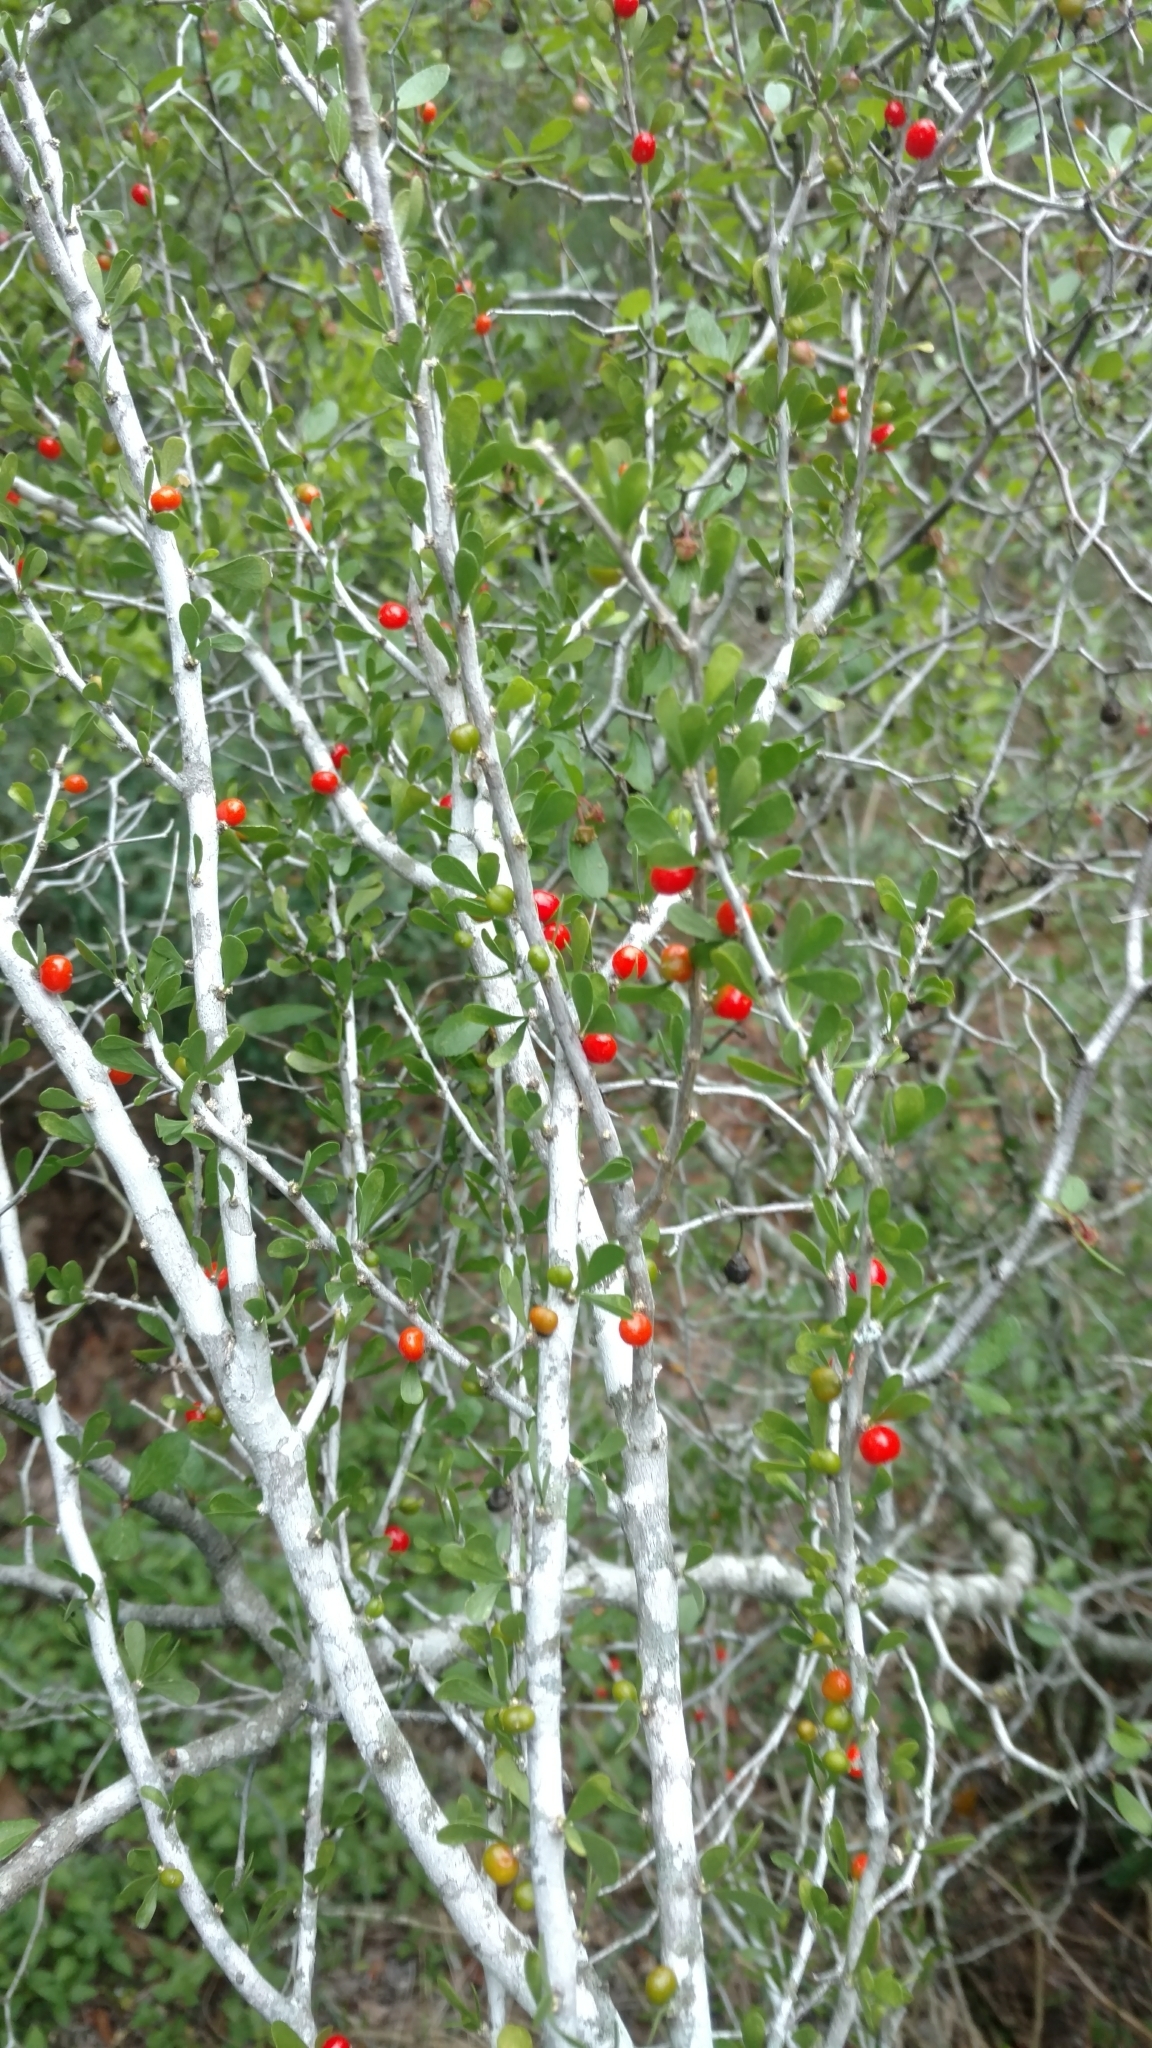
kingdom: Plantae
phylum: Tracheophyta
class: Magnoliopsida
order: Celastrales
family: Celastraceae
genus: Schaefferia
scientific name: Schaefferia cuneifolia
